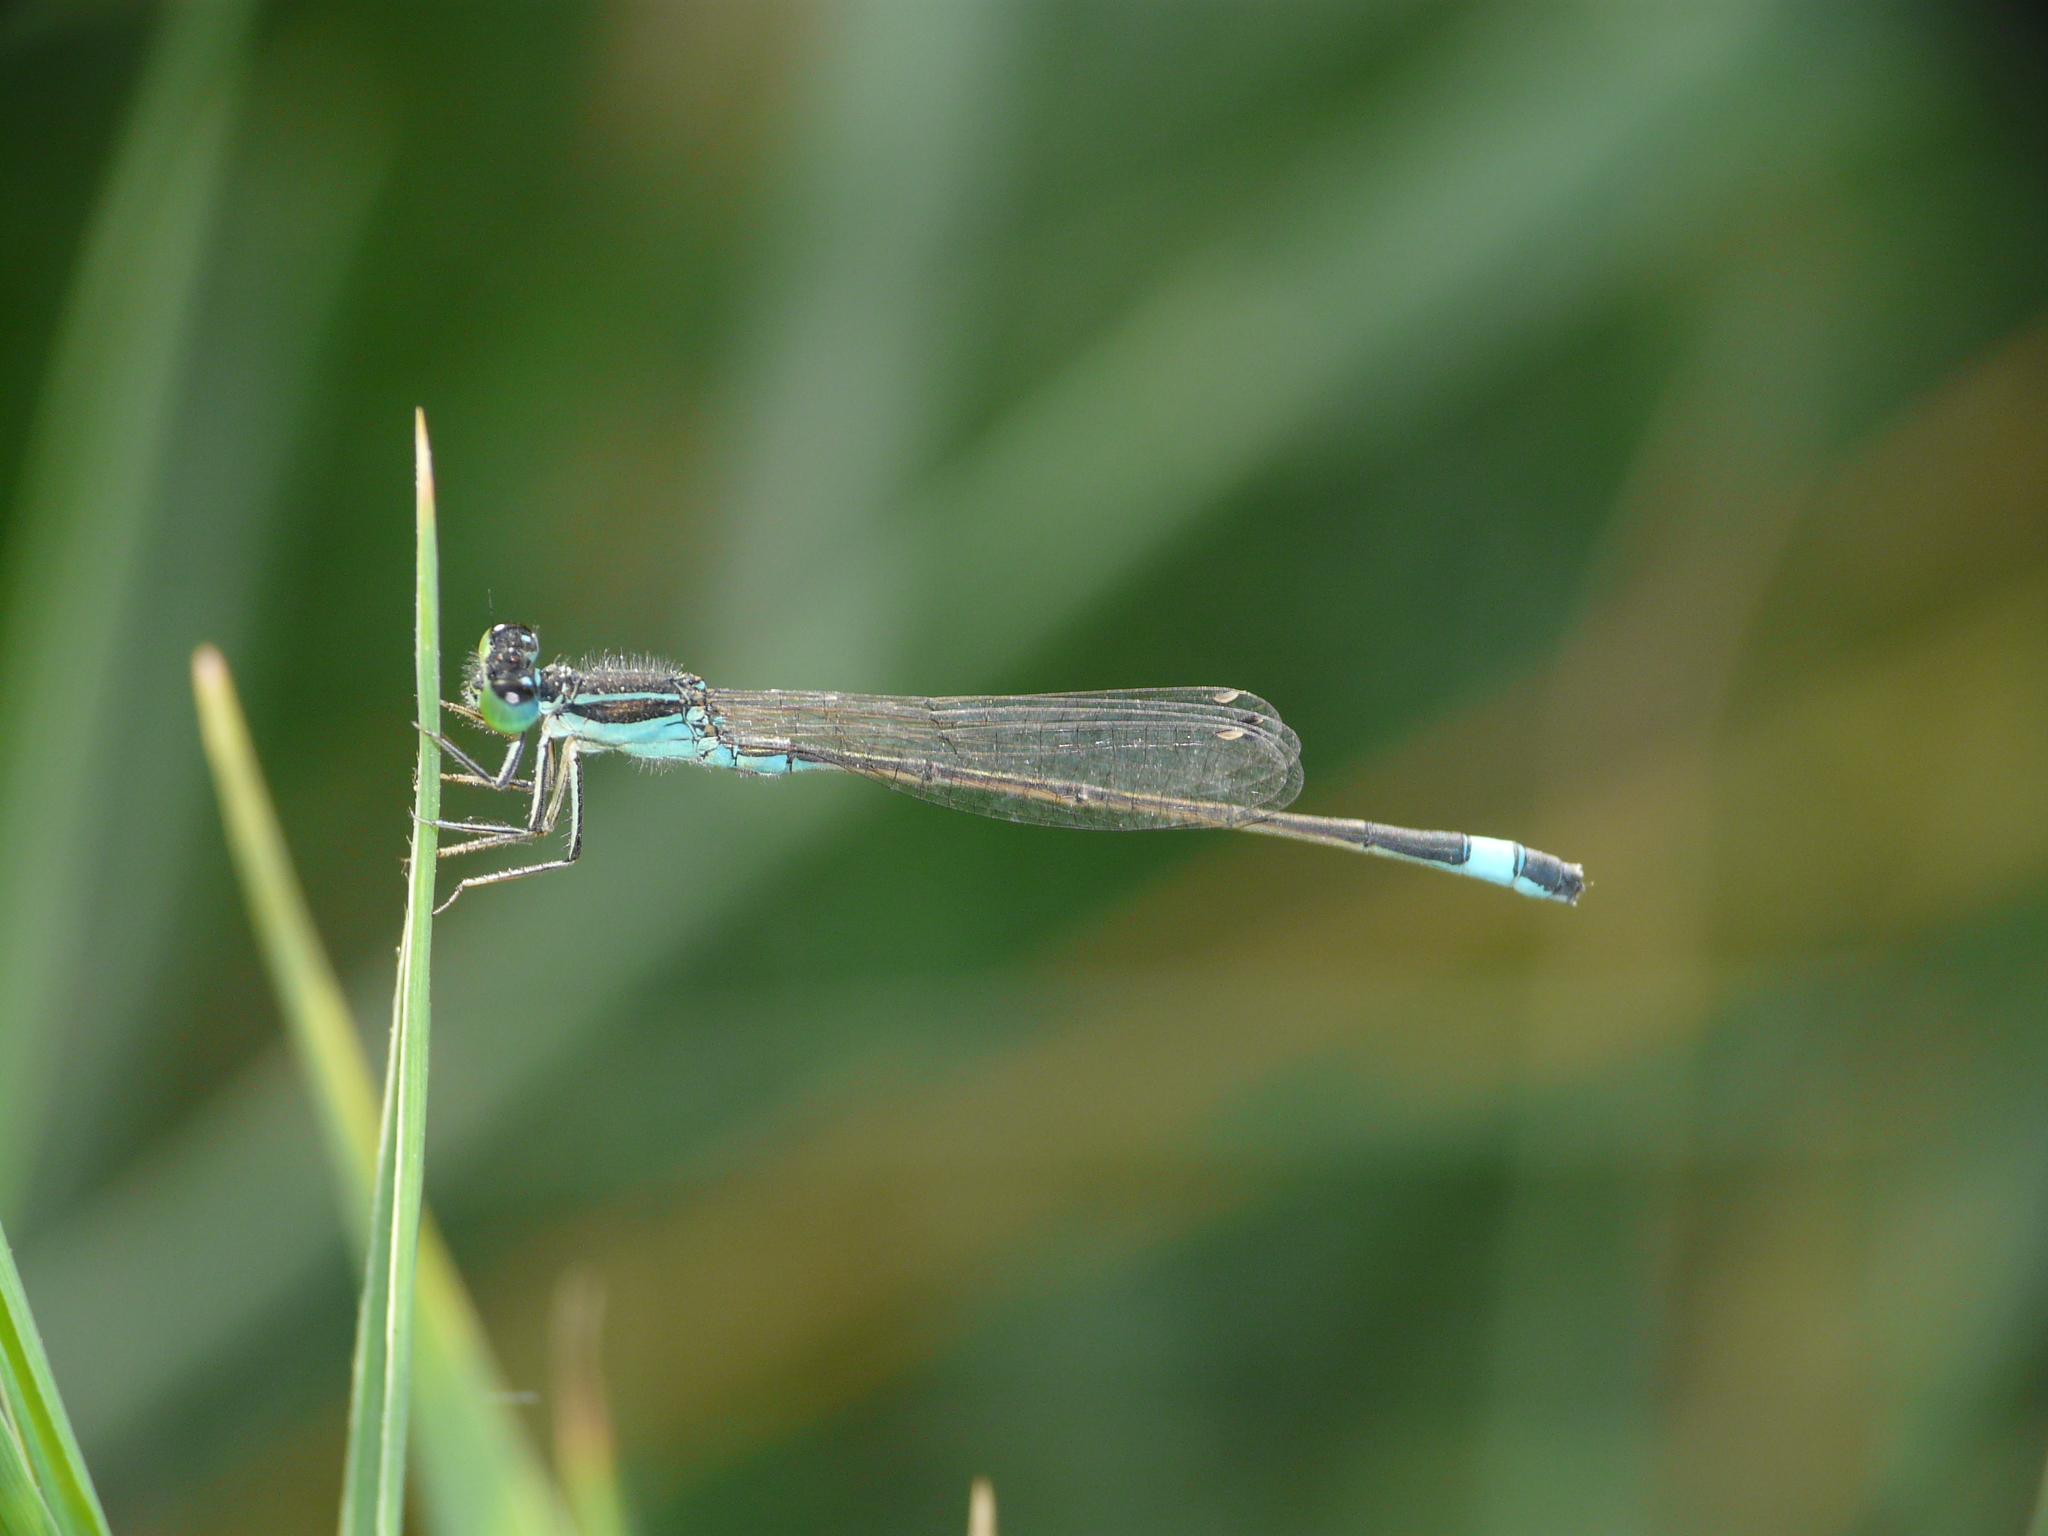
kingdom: Animalia
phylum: Arthropoda
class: Insecta
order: Odonata
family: Coenagrionidae
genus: Ischnura
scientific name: Ischnura evansi
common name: Desert bluetail
